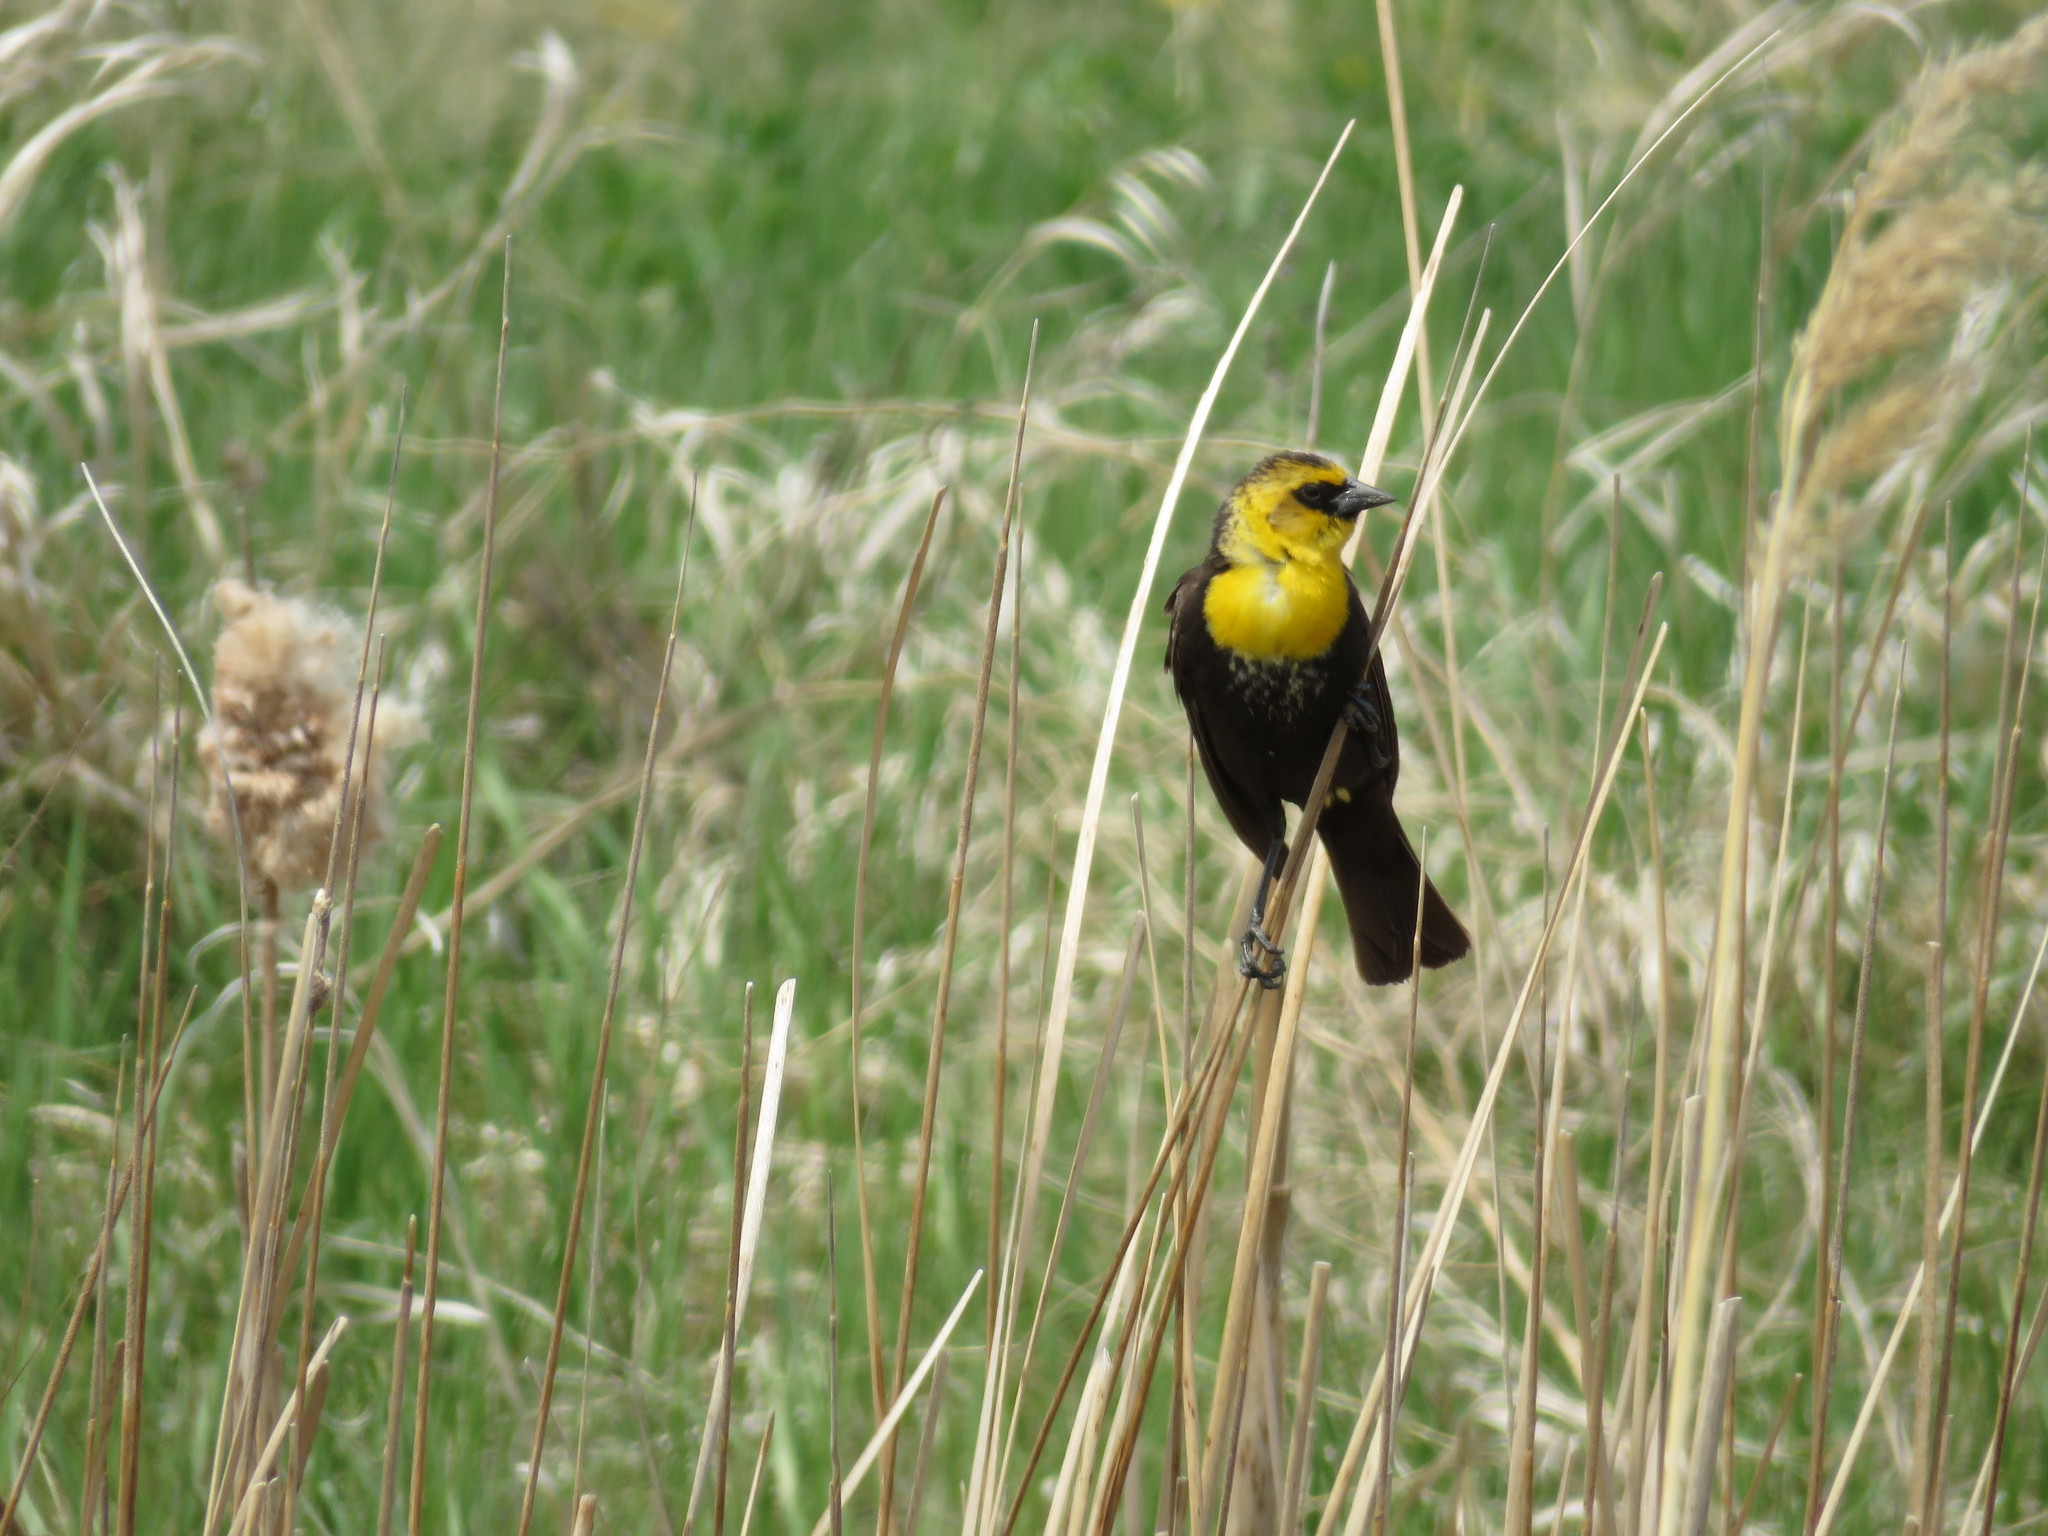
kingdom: Animalia
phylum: Chordata
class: Aves
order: Passeriformes
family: Icteridae
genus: Xanthocephalus
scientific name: Xanthocephalus xanthocephalus
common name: Yellow-headed blackbird
